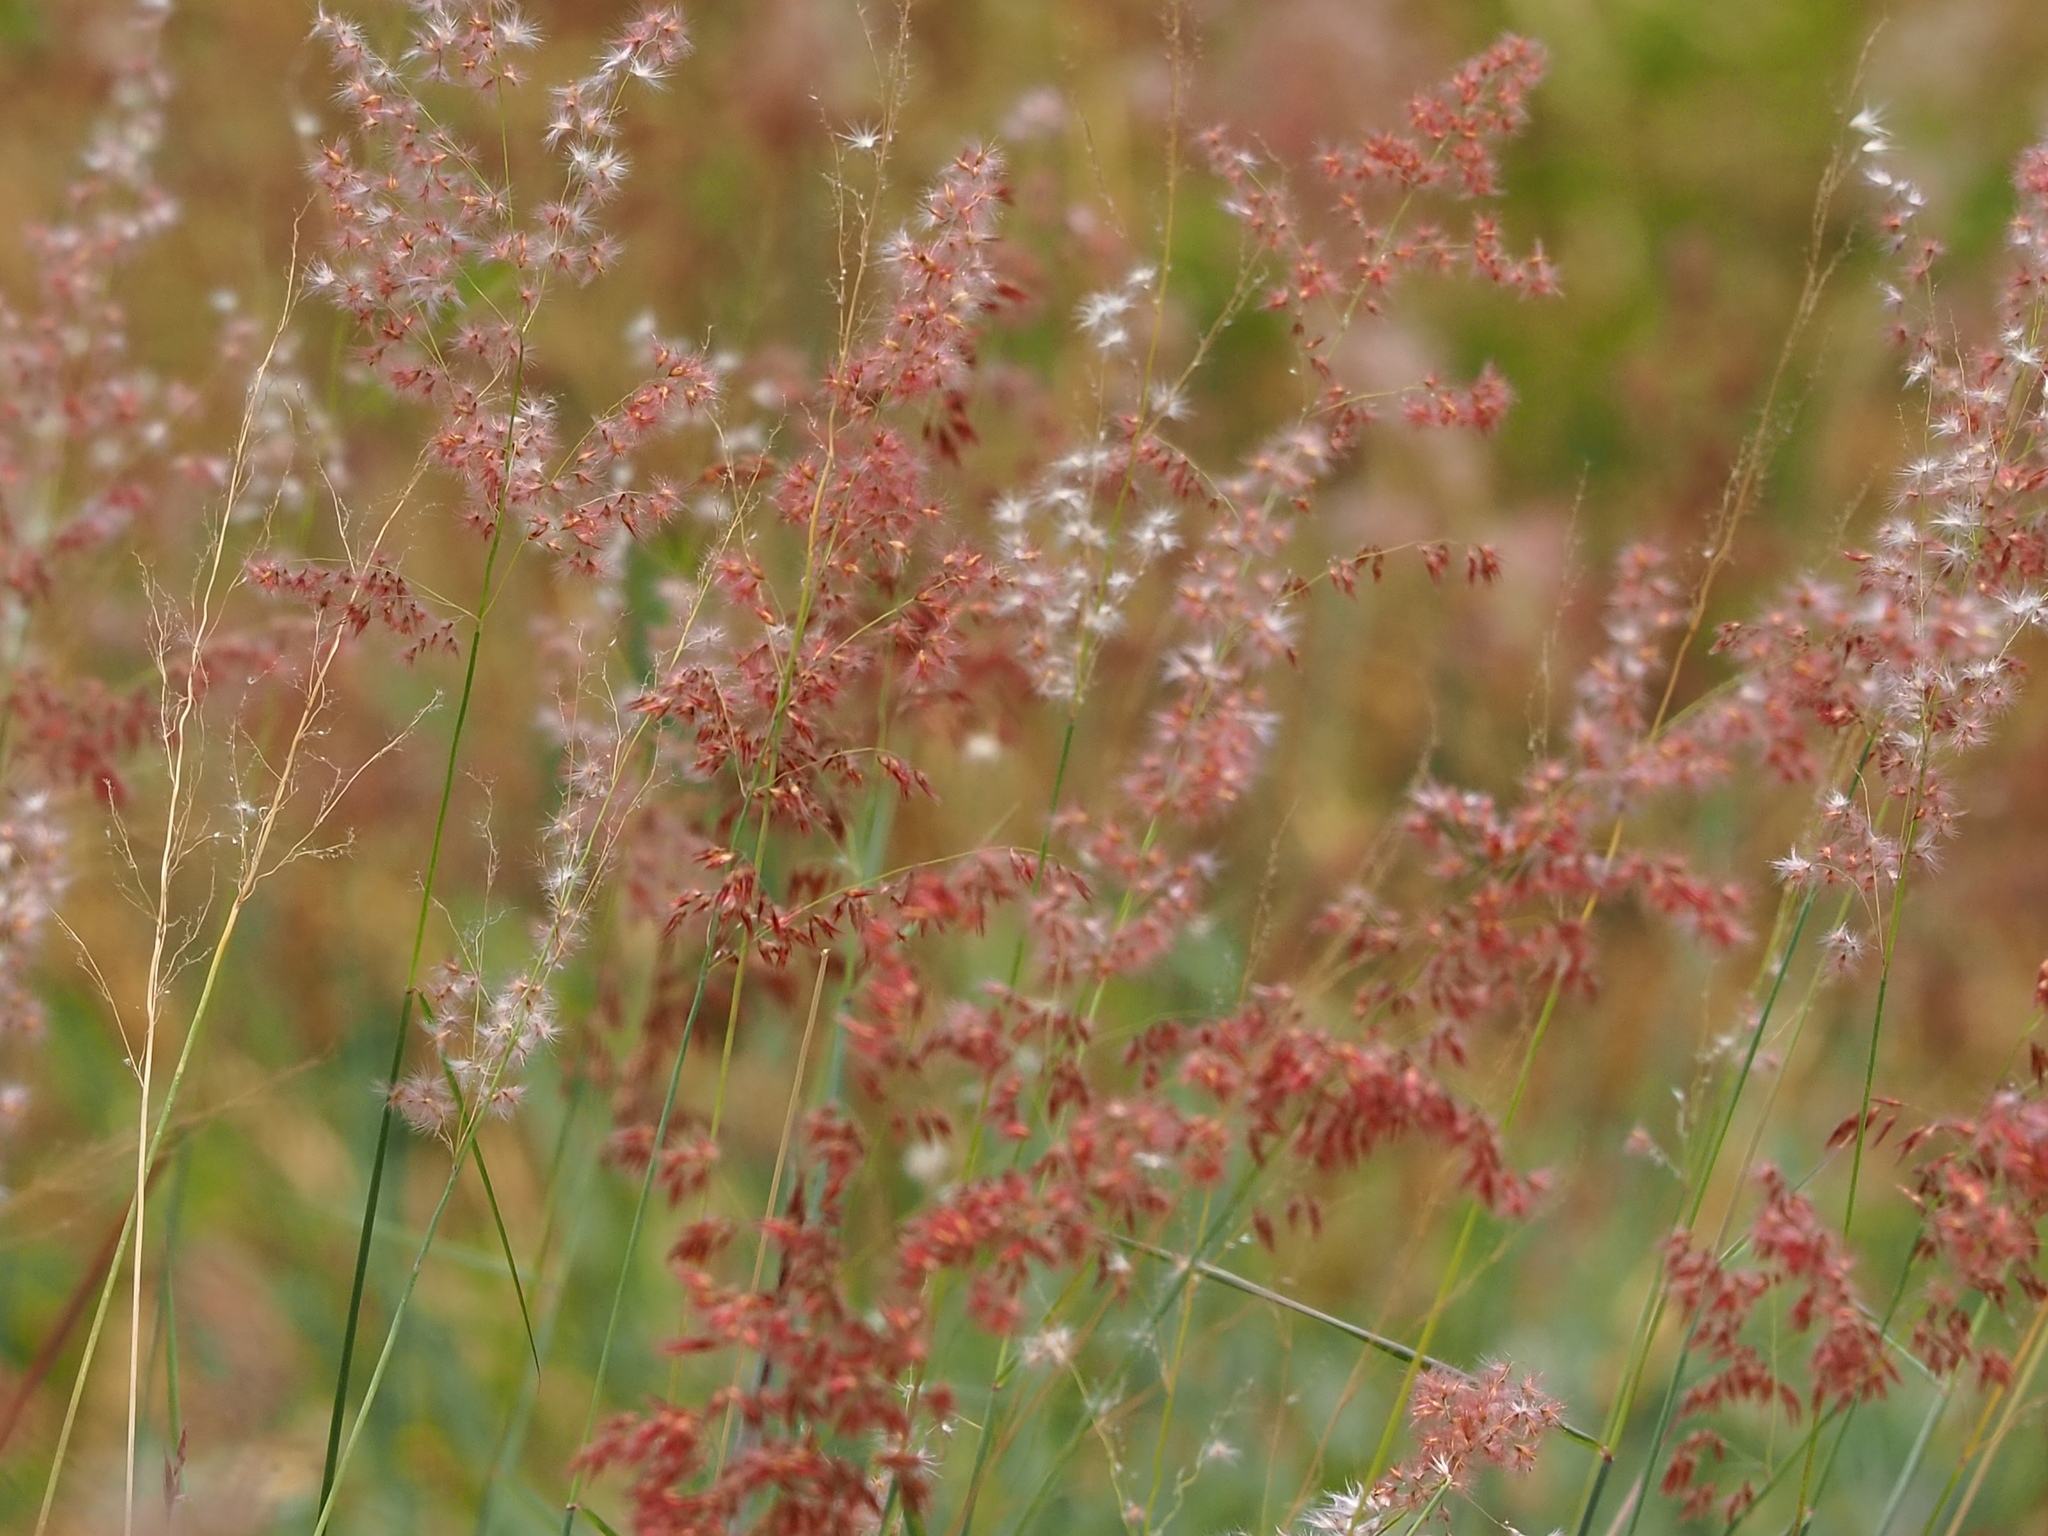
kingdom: Plantae
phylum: Tracheophyta
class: Liliopsida
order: Poales
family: Poaceae
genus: Melinis
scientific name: Melinis repens
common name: Rose natal grass
